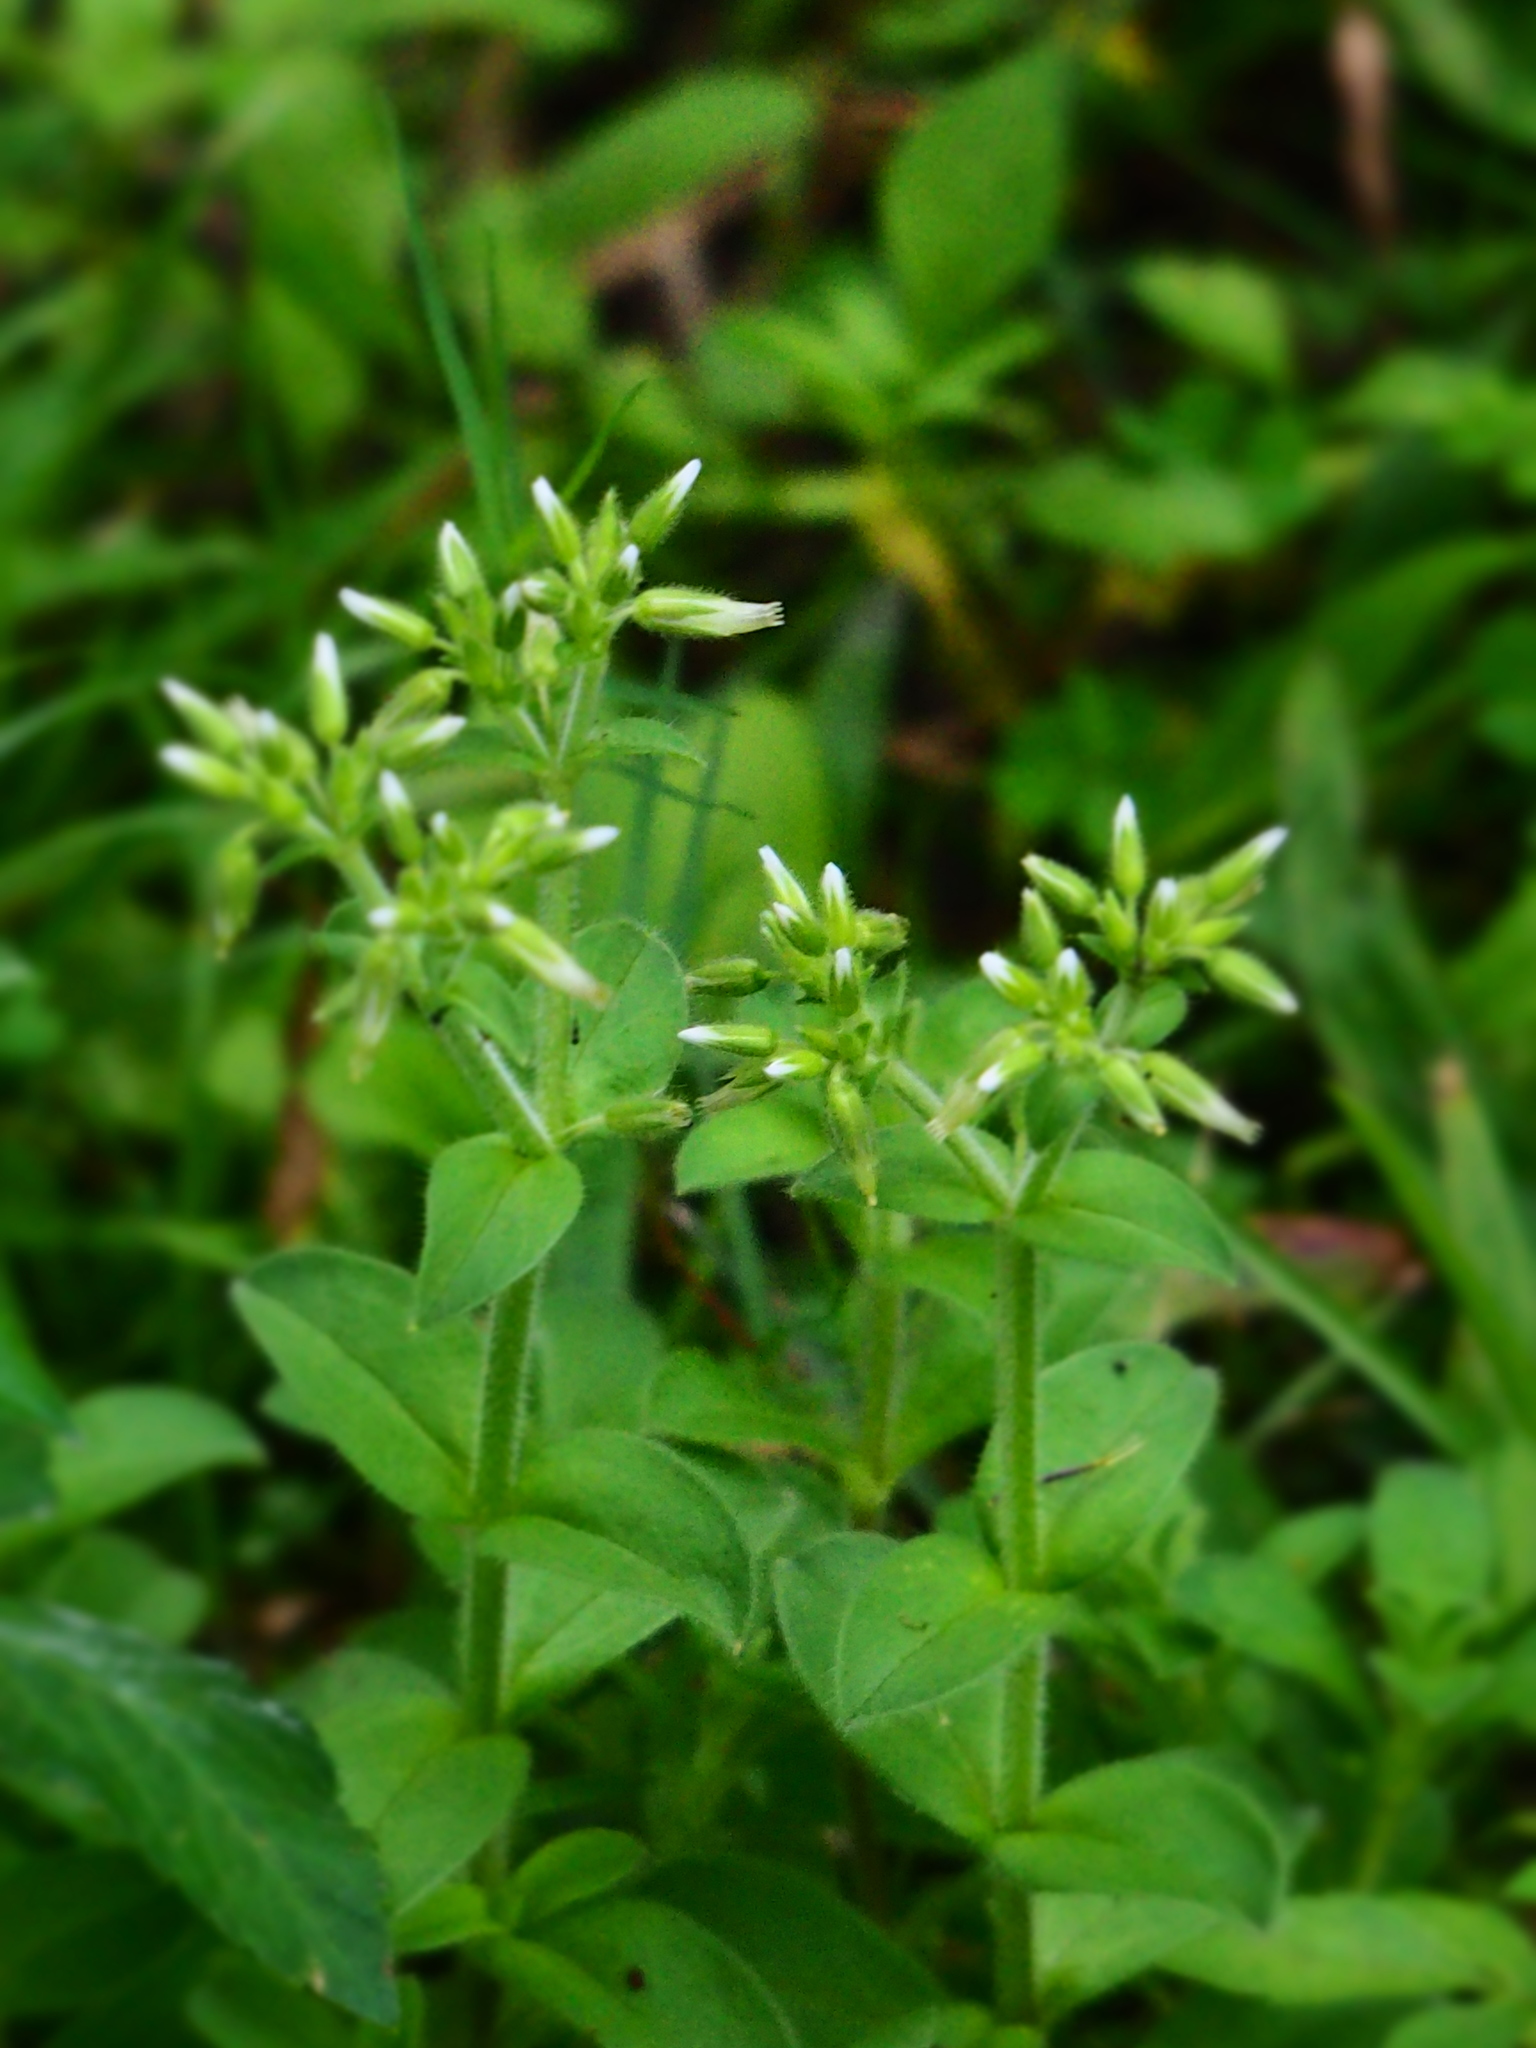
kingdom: Plantae
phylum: Tracheophyta
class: Magnoliopsida
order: Caryophyllales
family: Caryophyllaceae
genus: Cerastium
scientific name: Cerastium glomeratum
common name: Sticky chickweed
